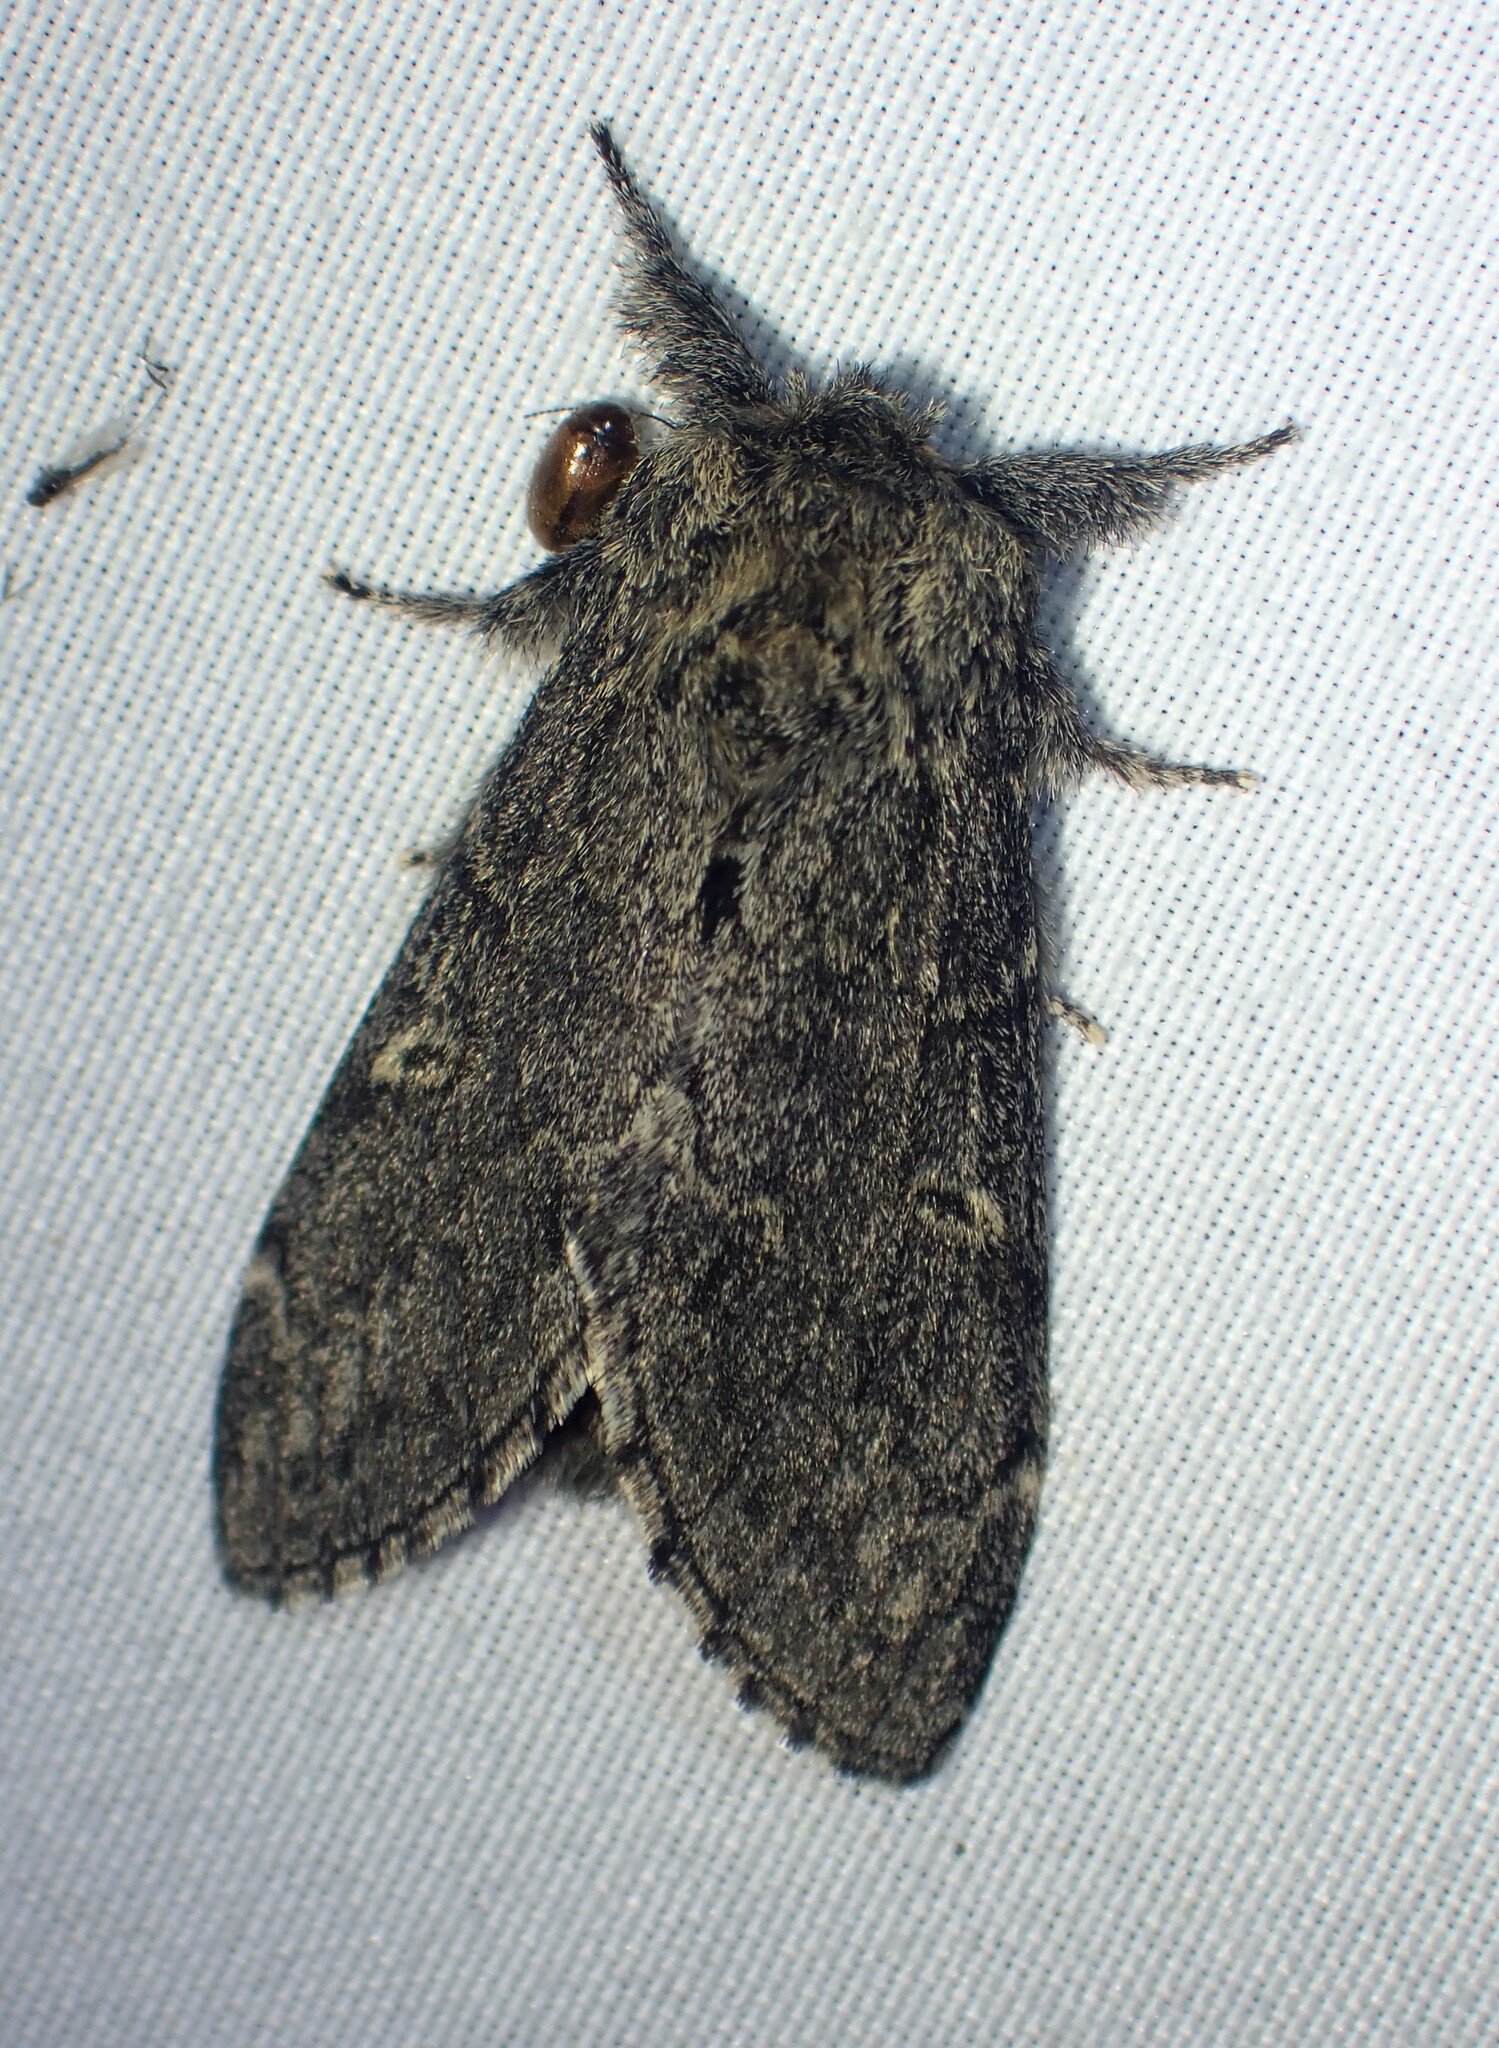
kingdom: Animalia
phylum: Arthropoda
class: Insecta
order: Lepidoptera
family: Notodontidae
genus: Notodonta
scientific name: Notodonta torva
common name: Large dark prominent
